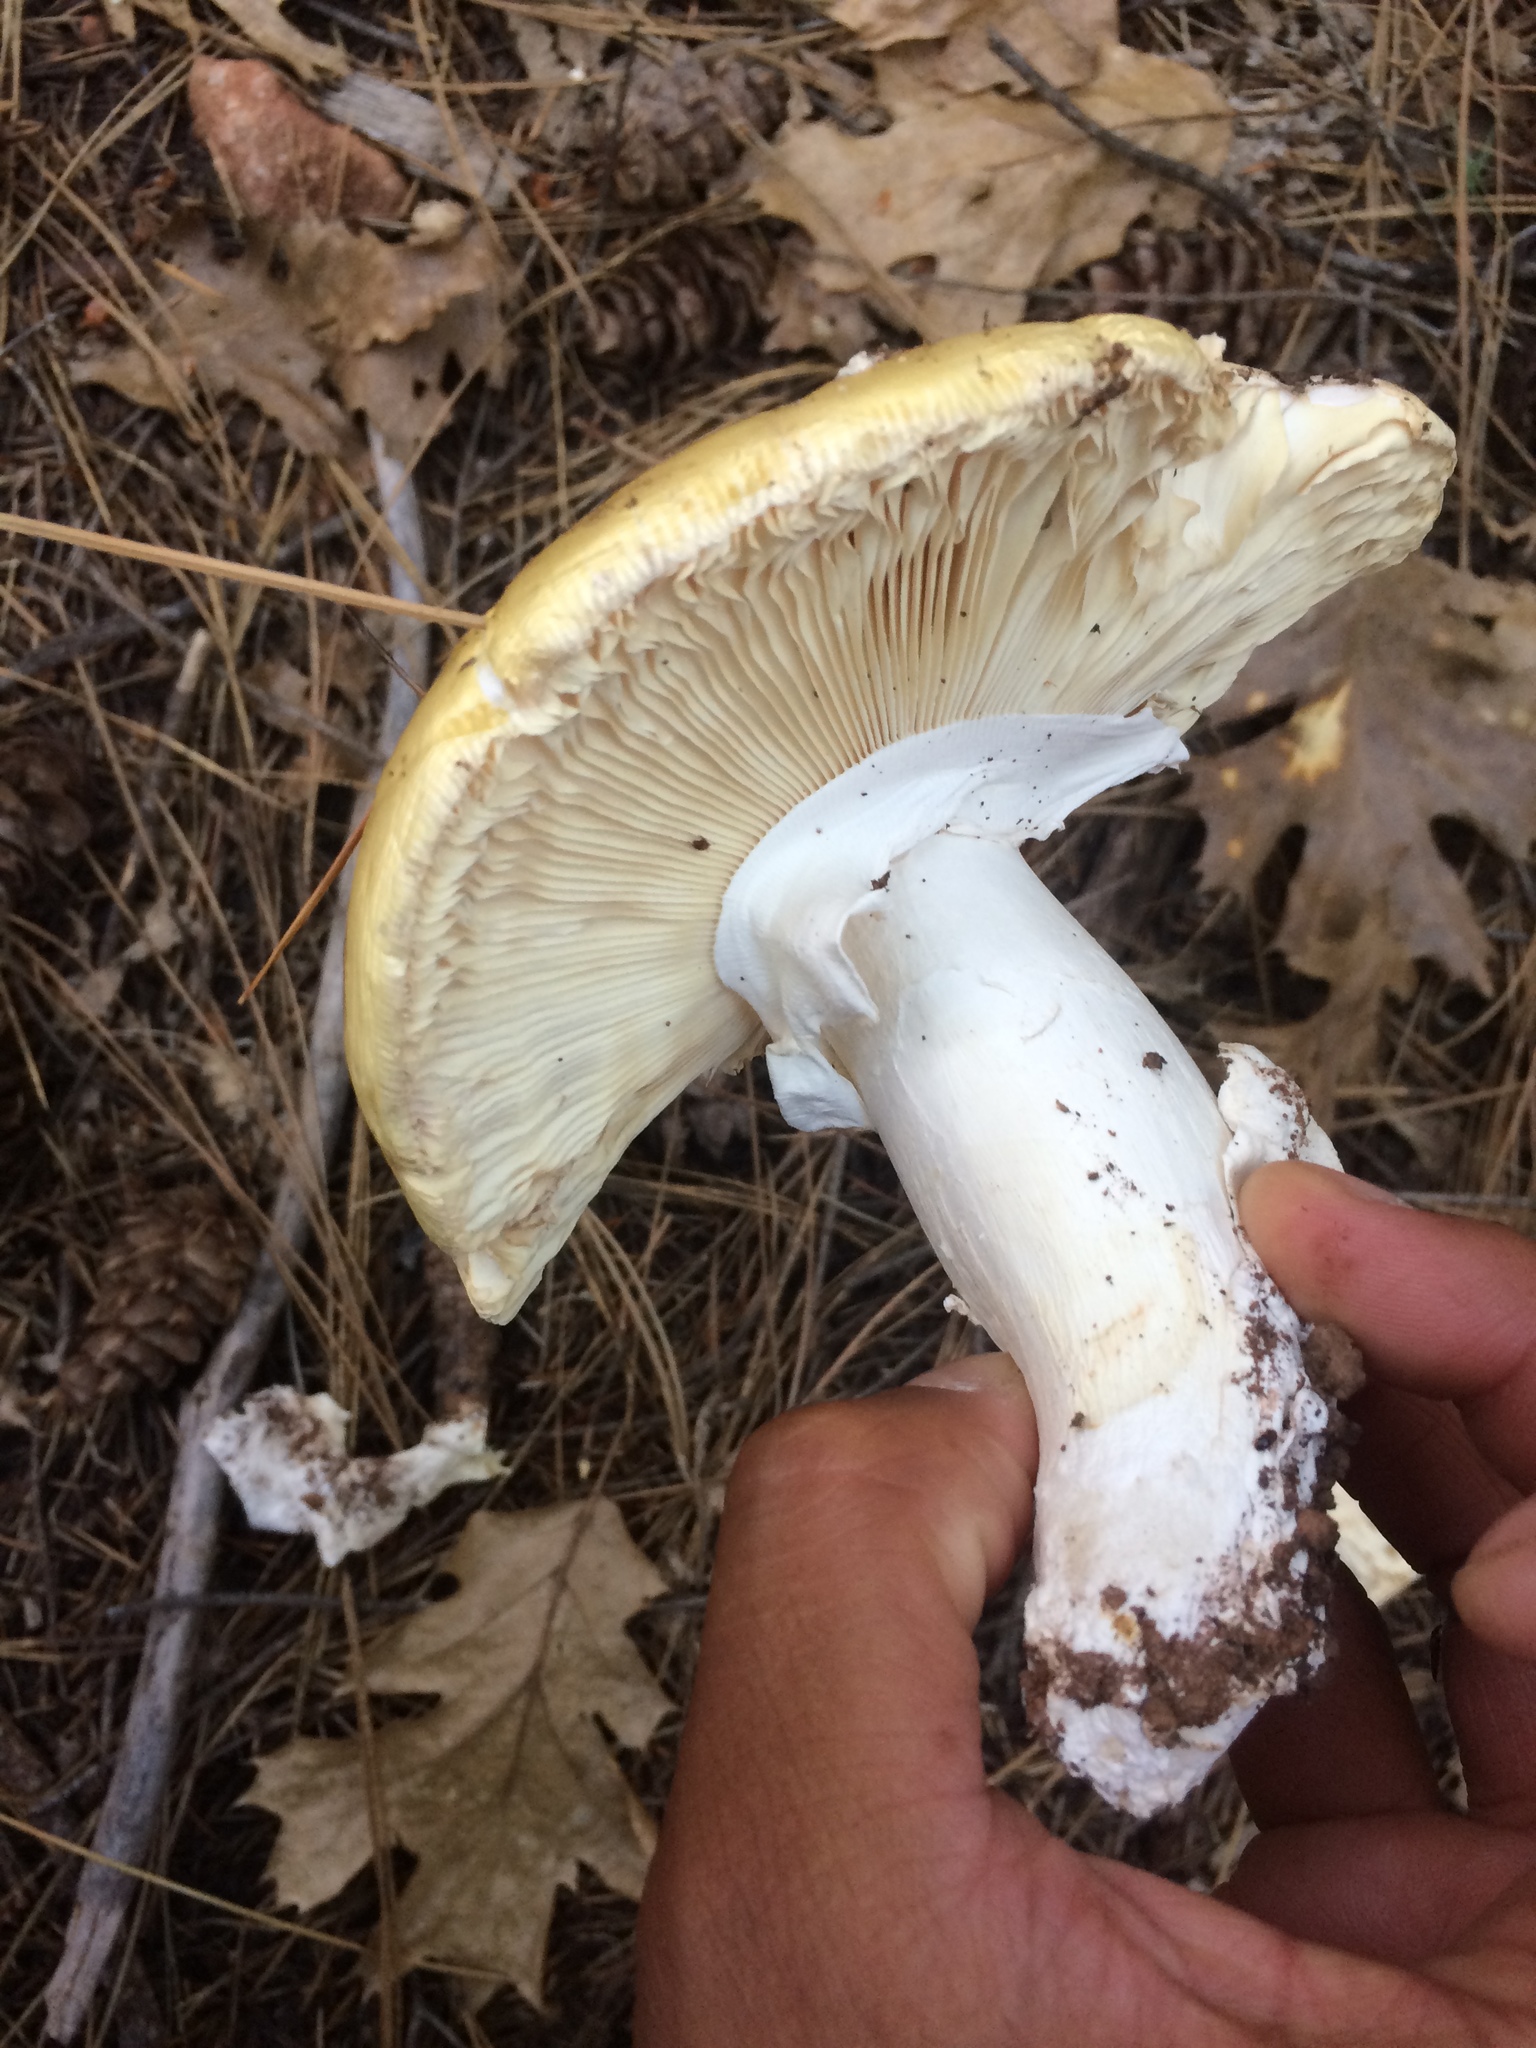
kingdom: Fungi
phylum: Basidiomycota
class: Agaricomycetes
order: Agaricales
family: Amanitaceae
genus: Amanita
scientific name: Amanita vernicoccora
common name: Spring coccora
